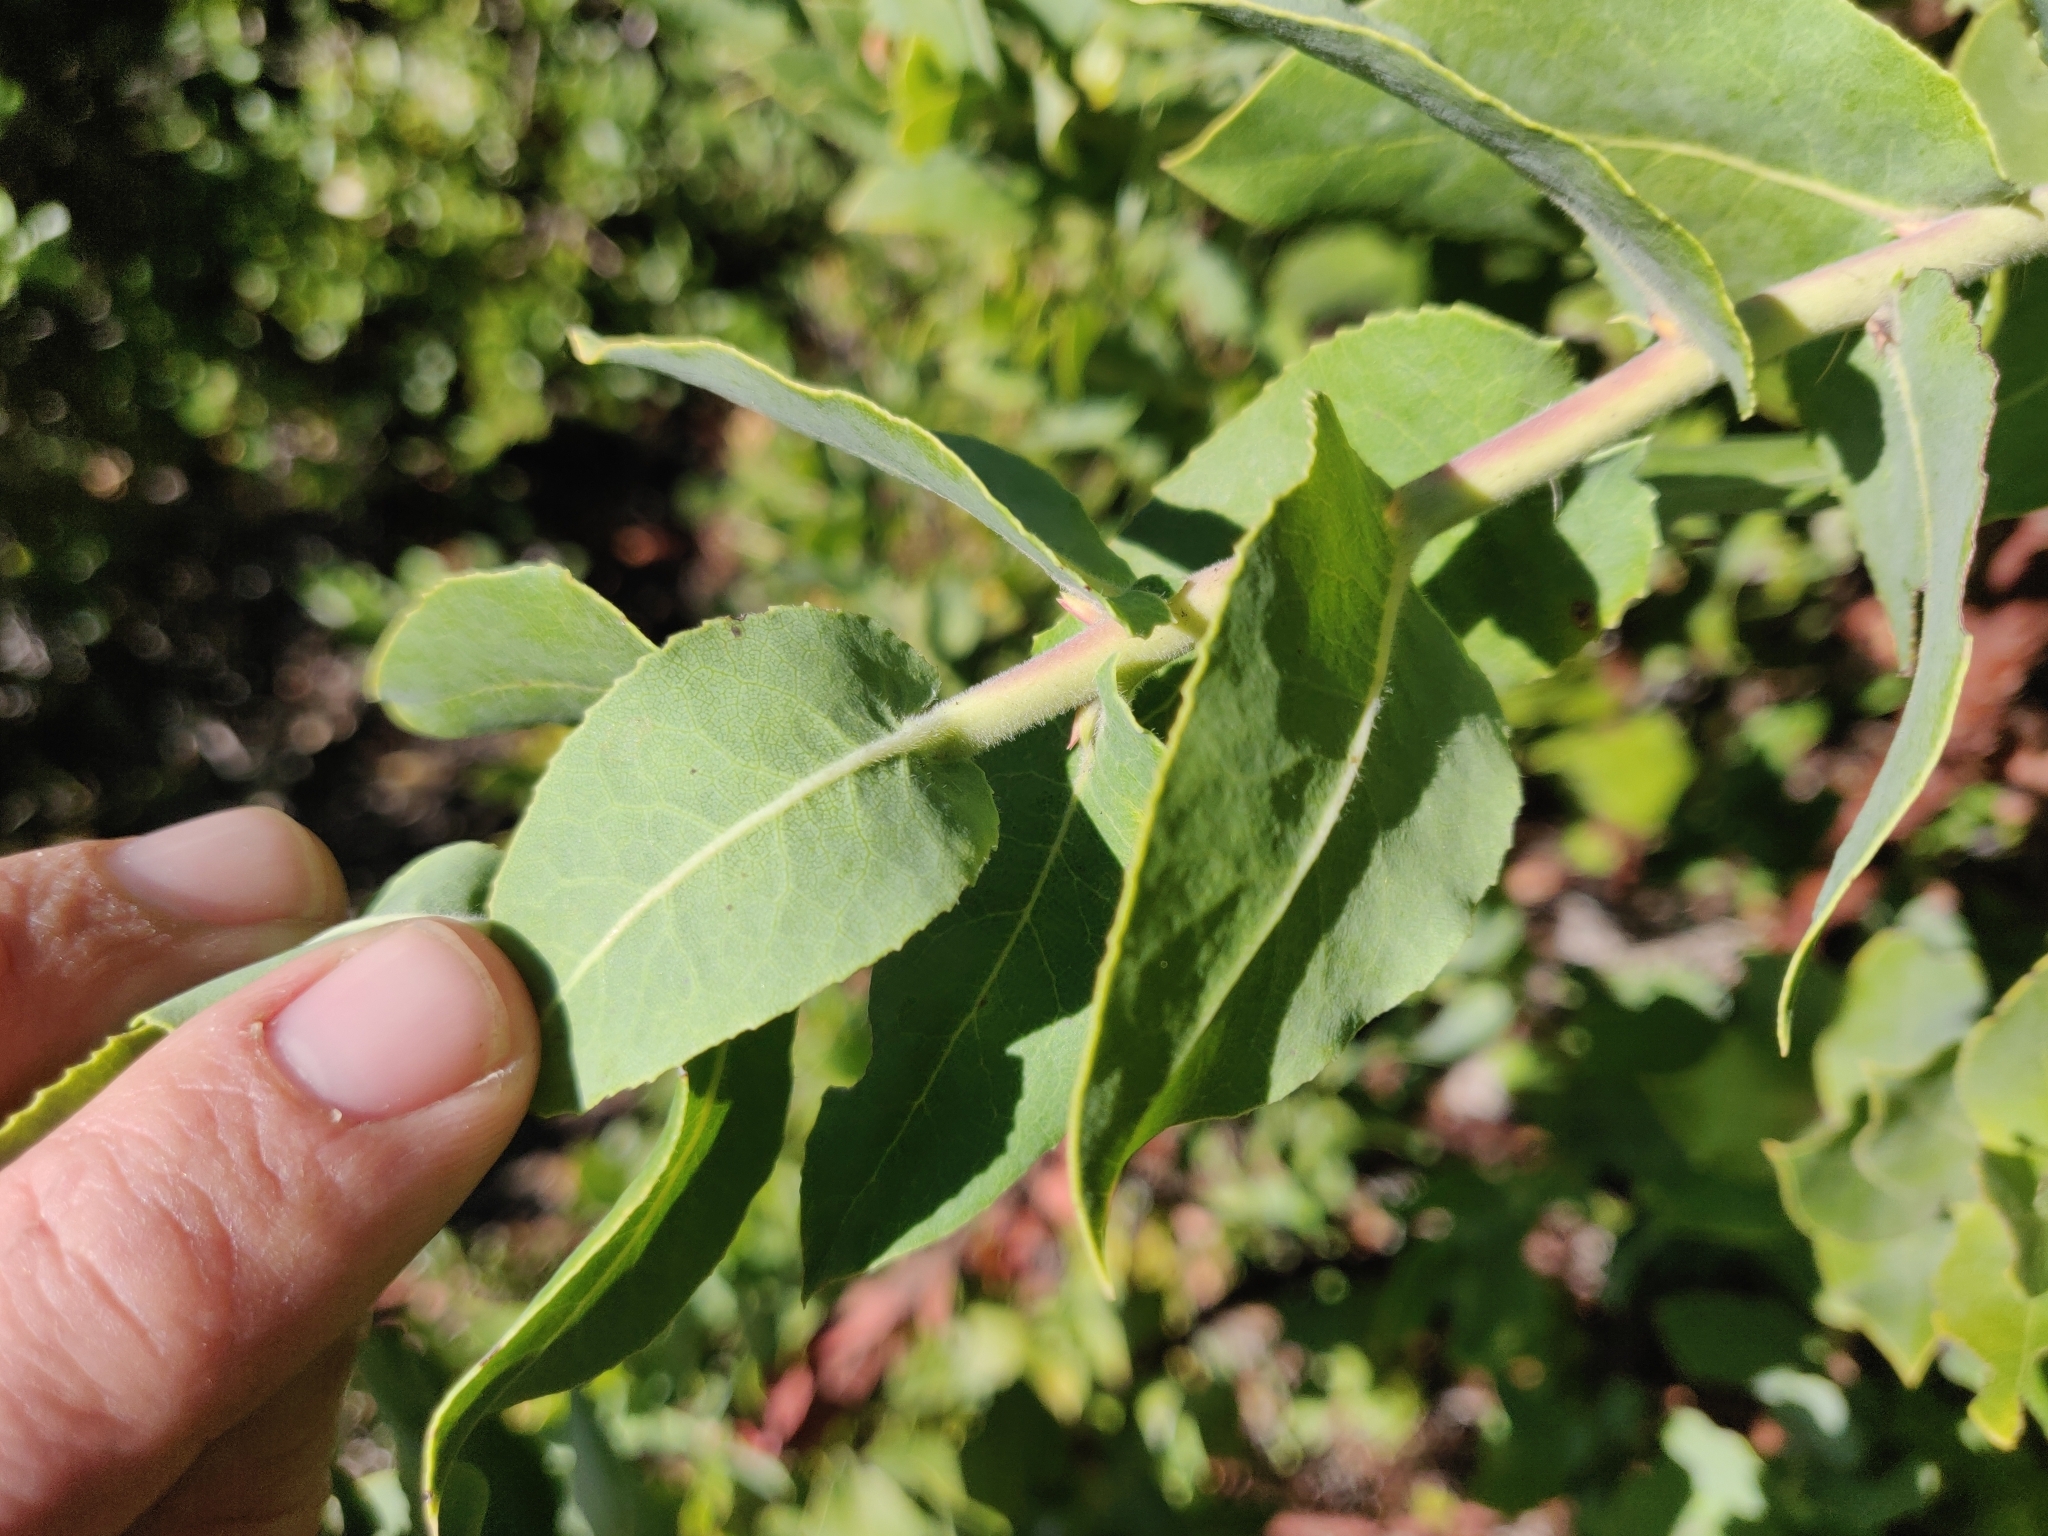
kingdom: Plantae
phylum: Tracheophyta
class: Magnoliopsida
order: Ericales
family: Ericaceae
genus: Arctostaphylos
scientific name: Arctostaphylos andersonii
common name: Santa cruz manzanita
